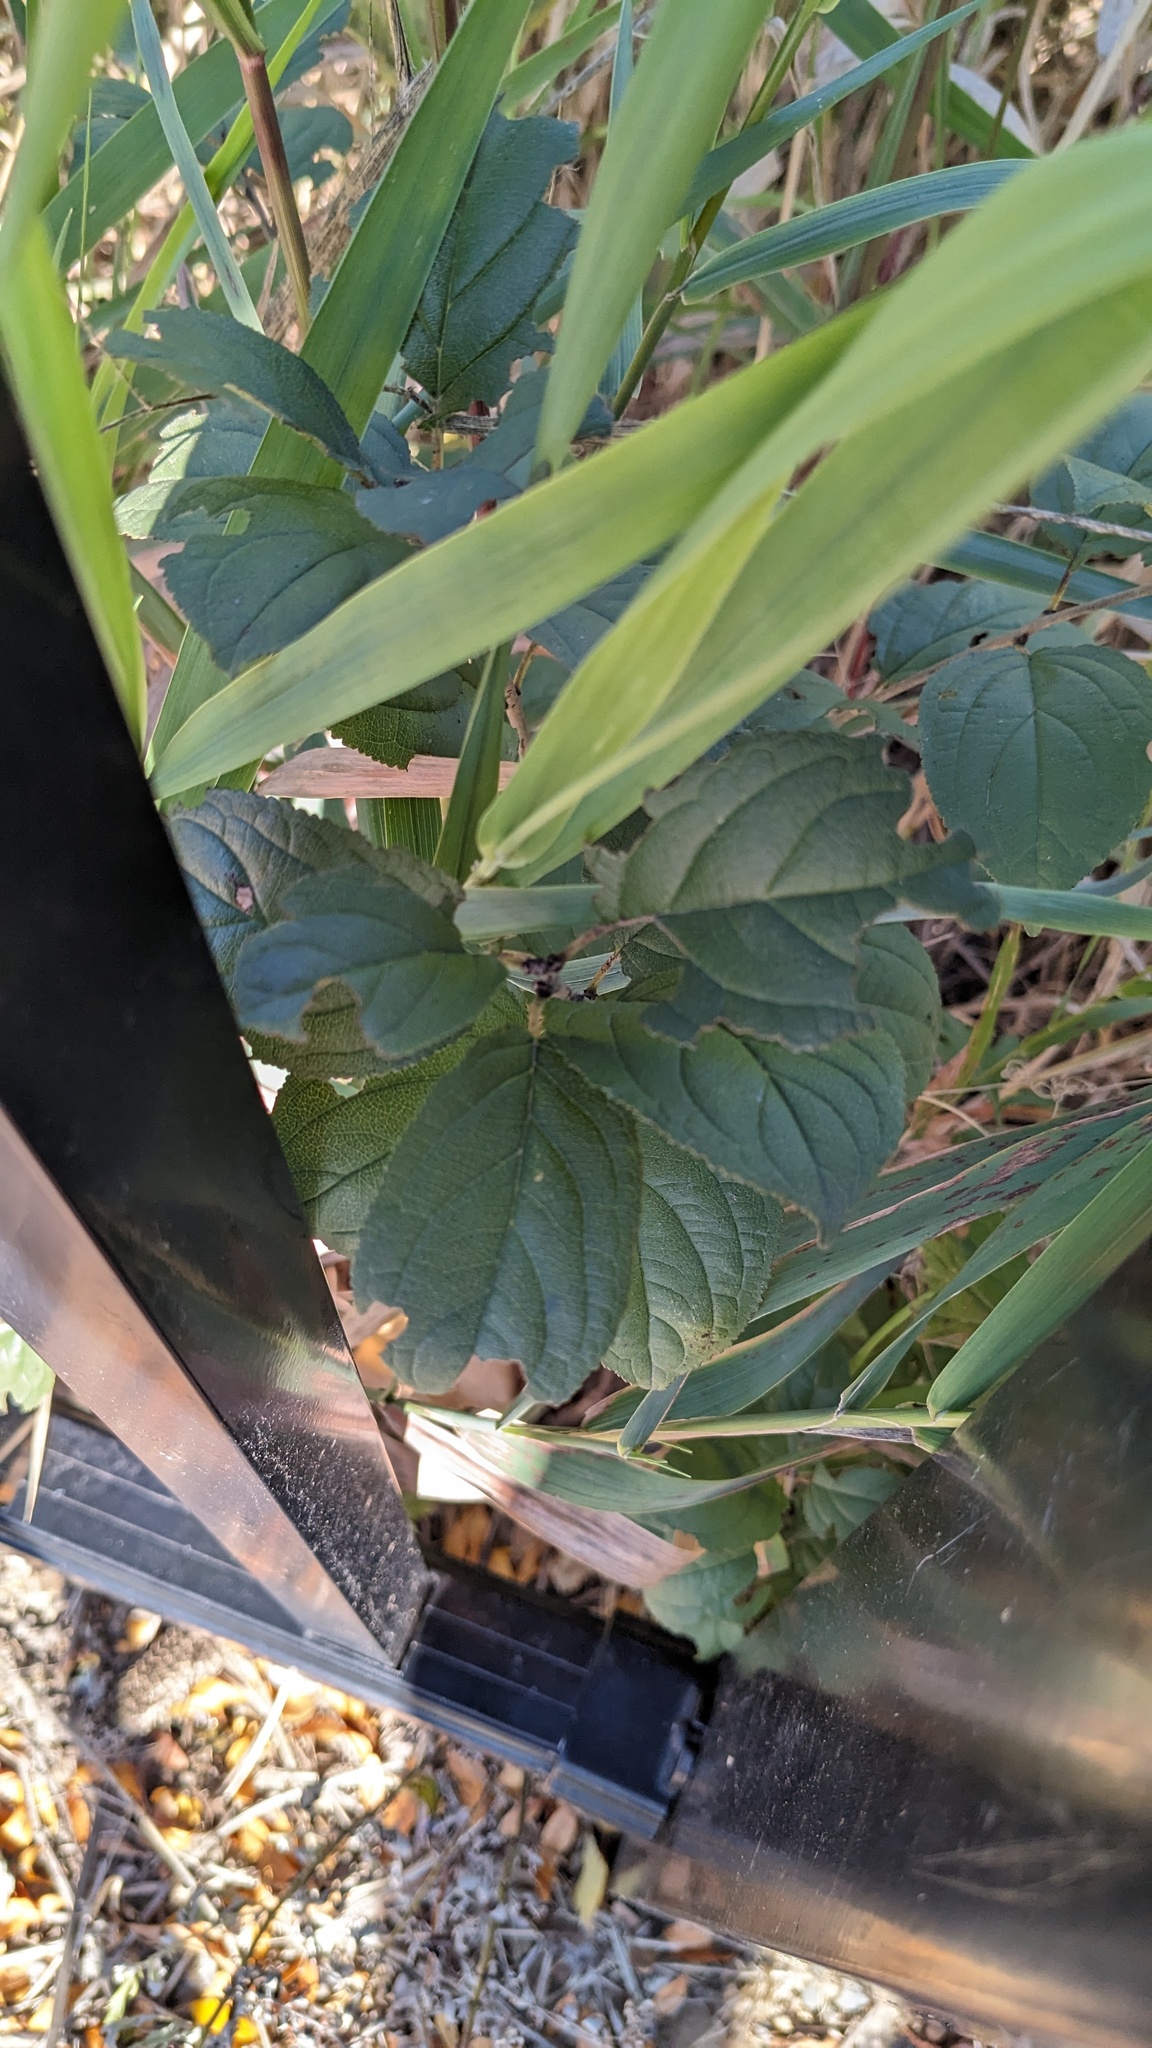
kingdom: Plantae
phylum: Tracheophyta
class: Magnoliopsida
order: Rosales
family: Rhamnaceae
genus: Rhamnus
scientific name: Rhamnus cathartica
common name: Common buckthorn
